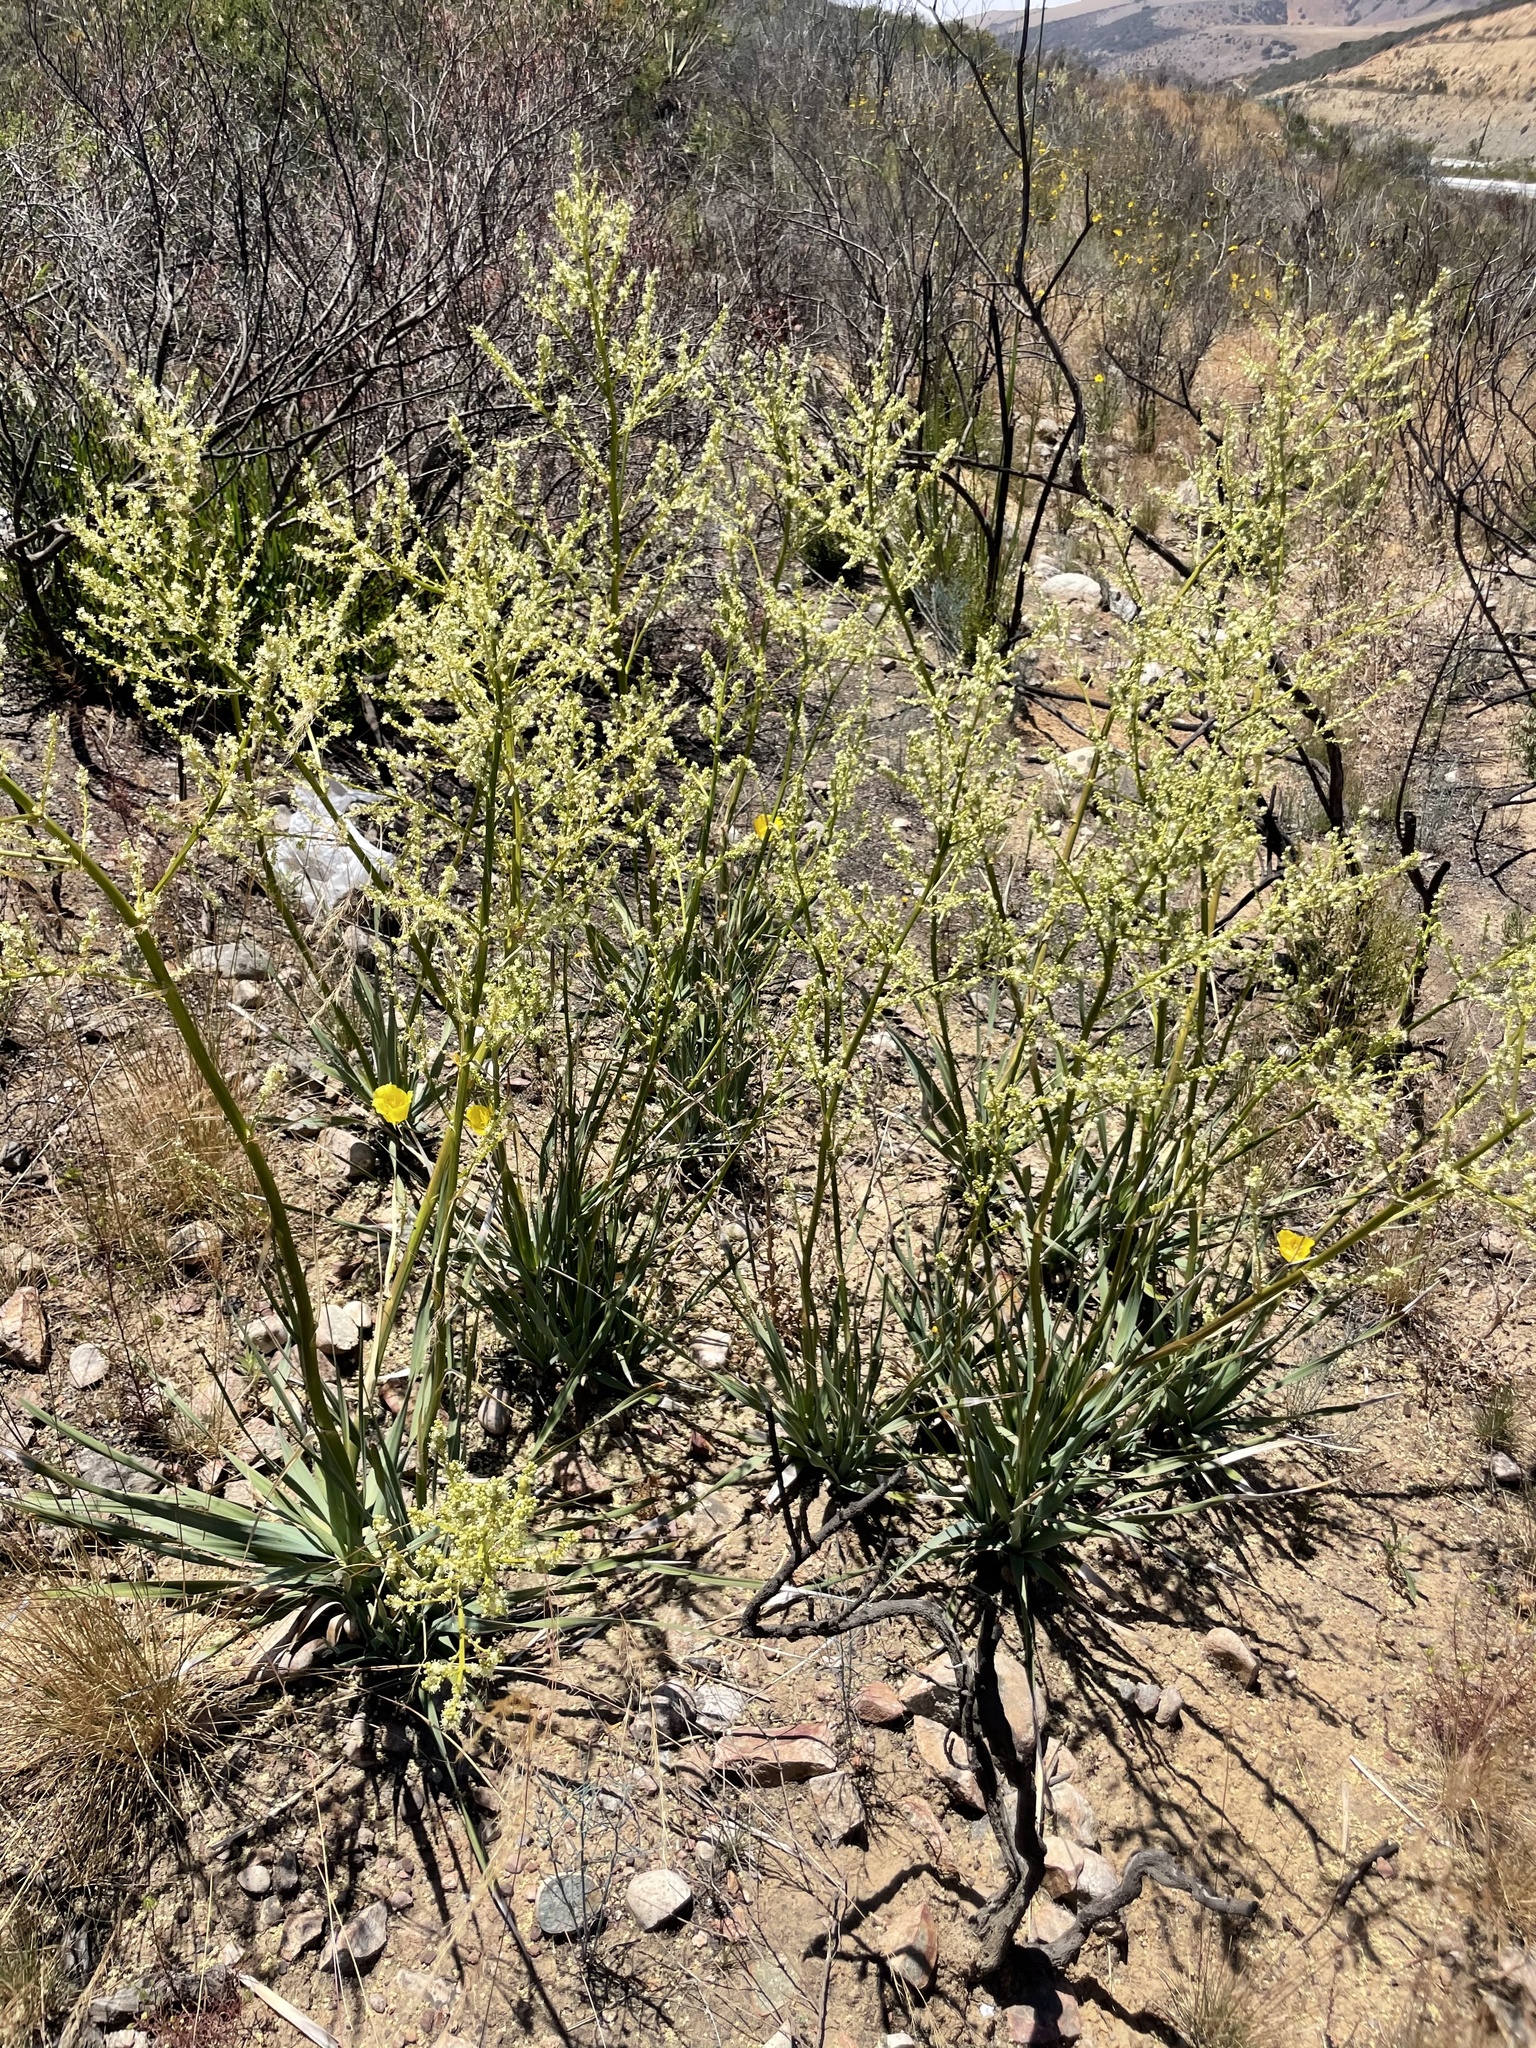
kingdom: Plantae
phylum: Tracheophyta
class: Liliopsida
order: Asparagales
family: Asparagaceae
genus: Nolina
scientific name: Nolina interrata
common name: Dehesa bear-grass
